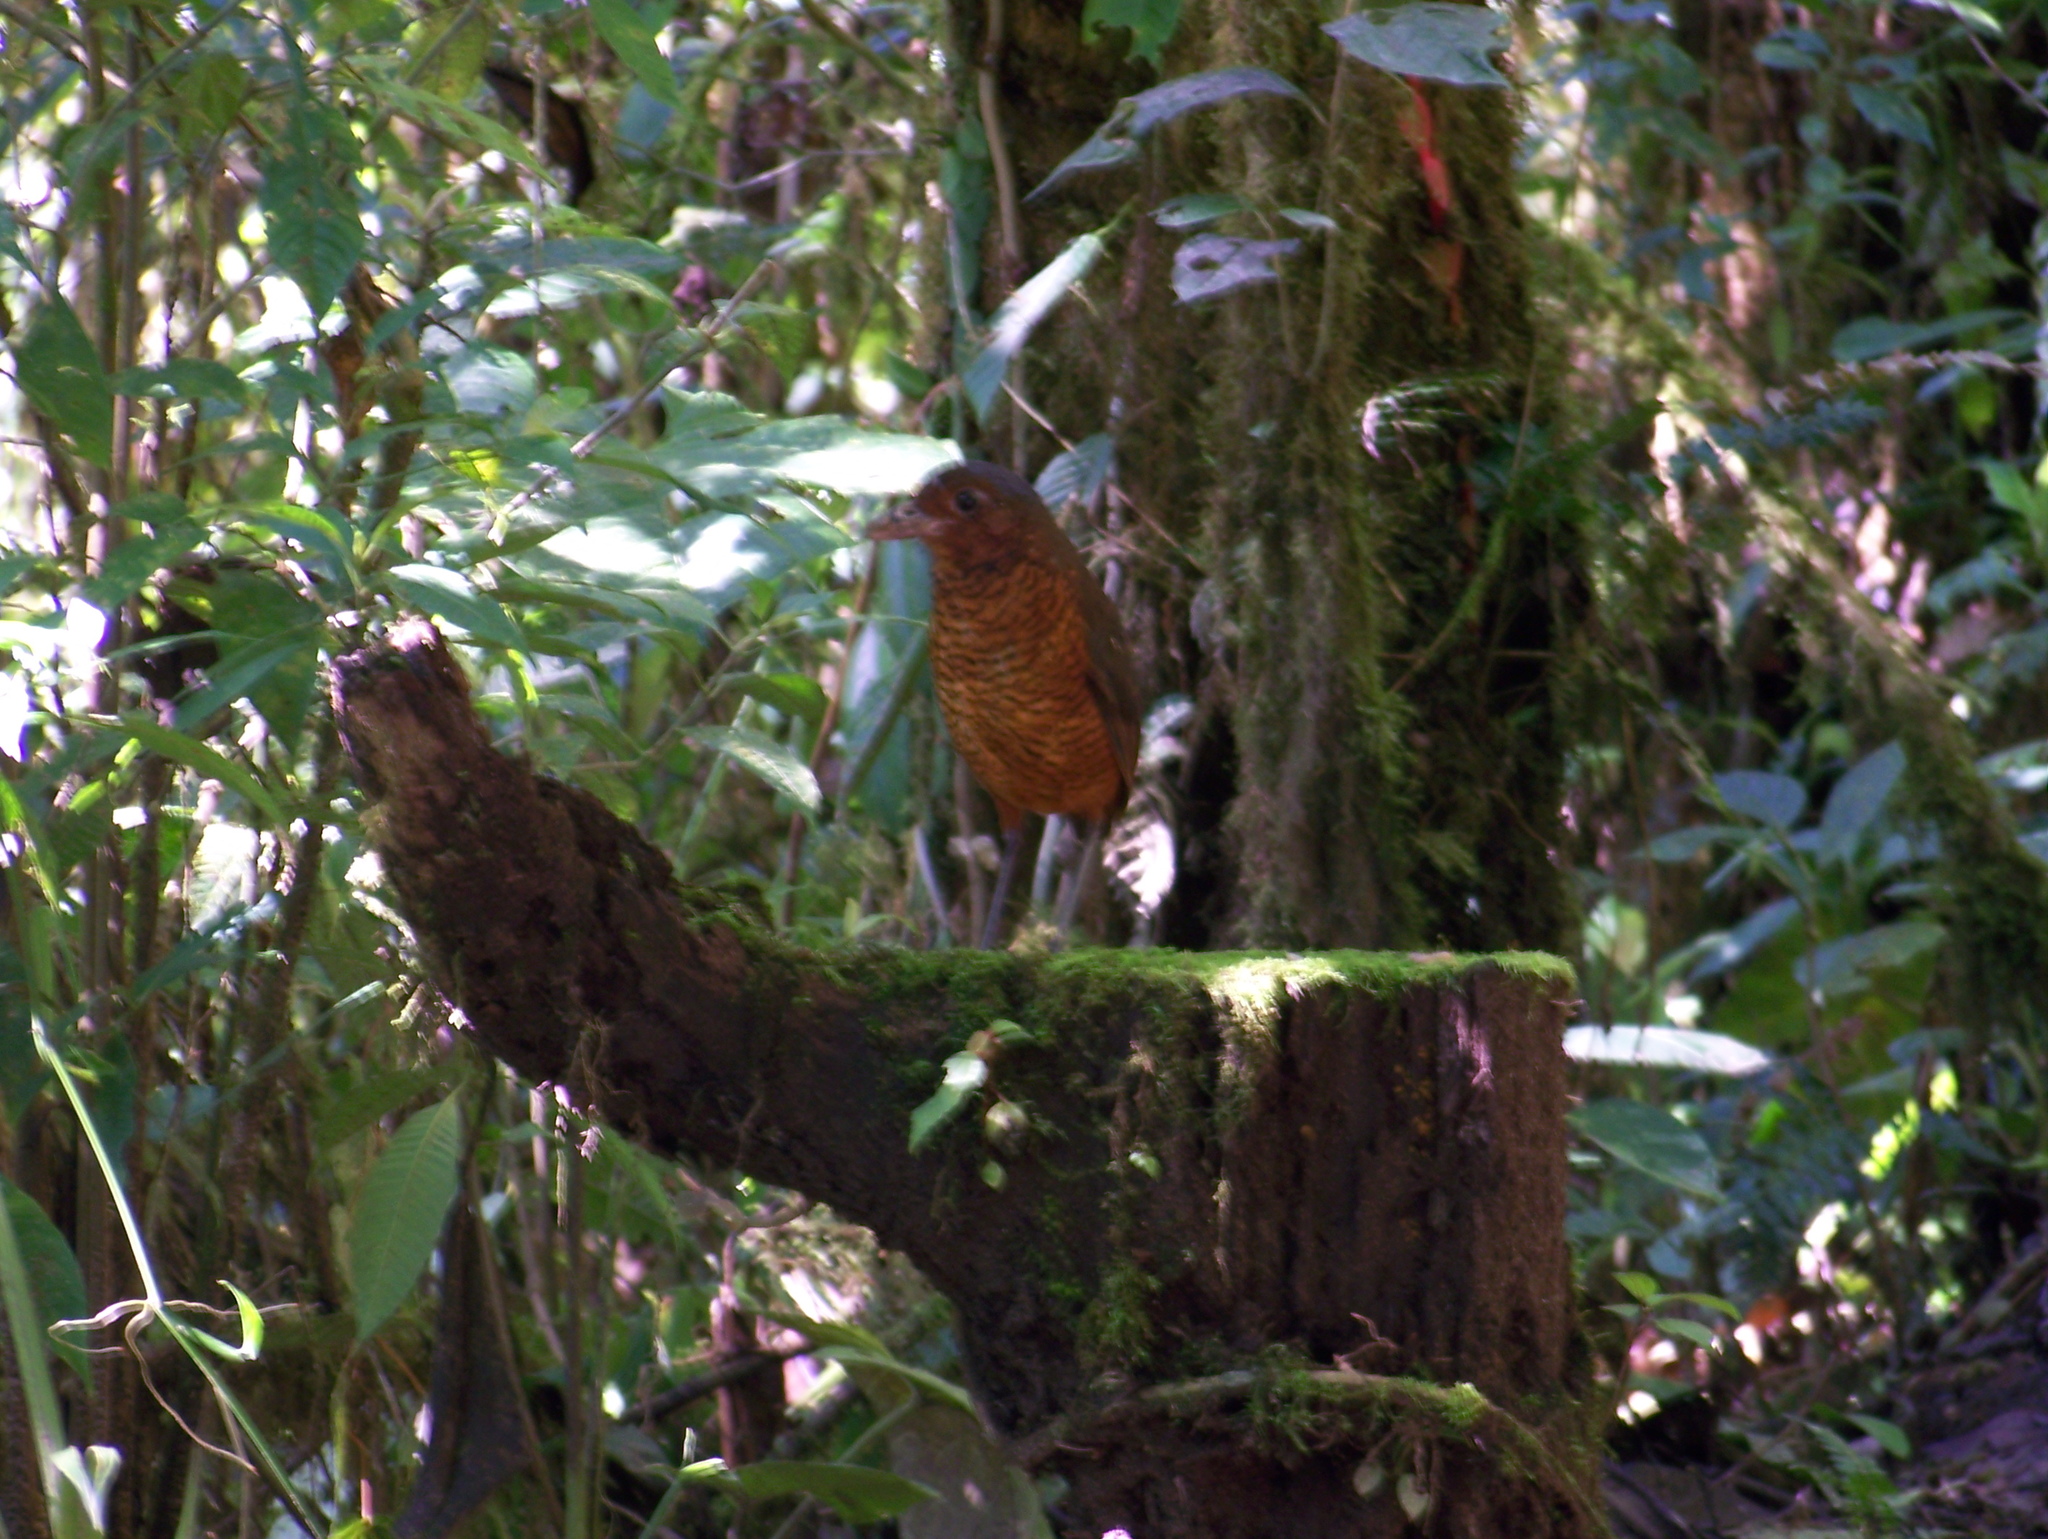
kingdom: Animalia
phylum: Chordata
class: Aves
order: Passeriformes
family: Grallariidae
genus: Grallaria
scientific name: Grallaria gigantea
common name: Giant antpitta
